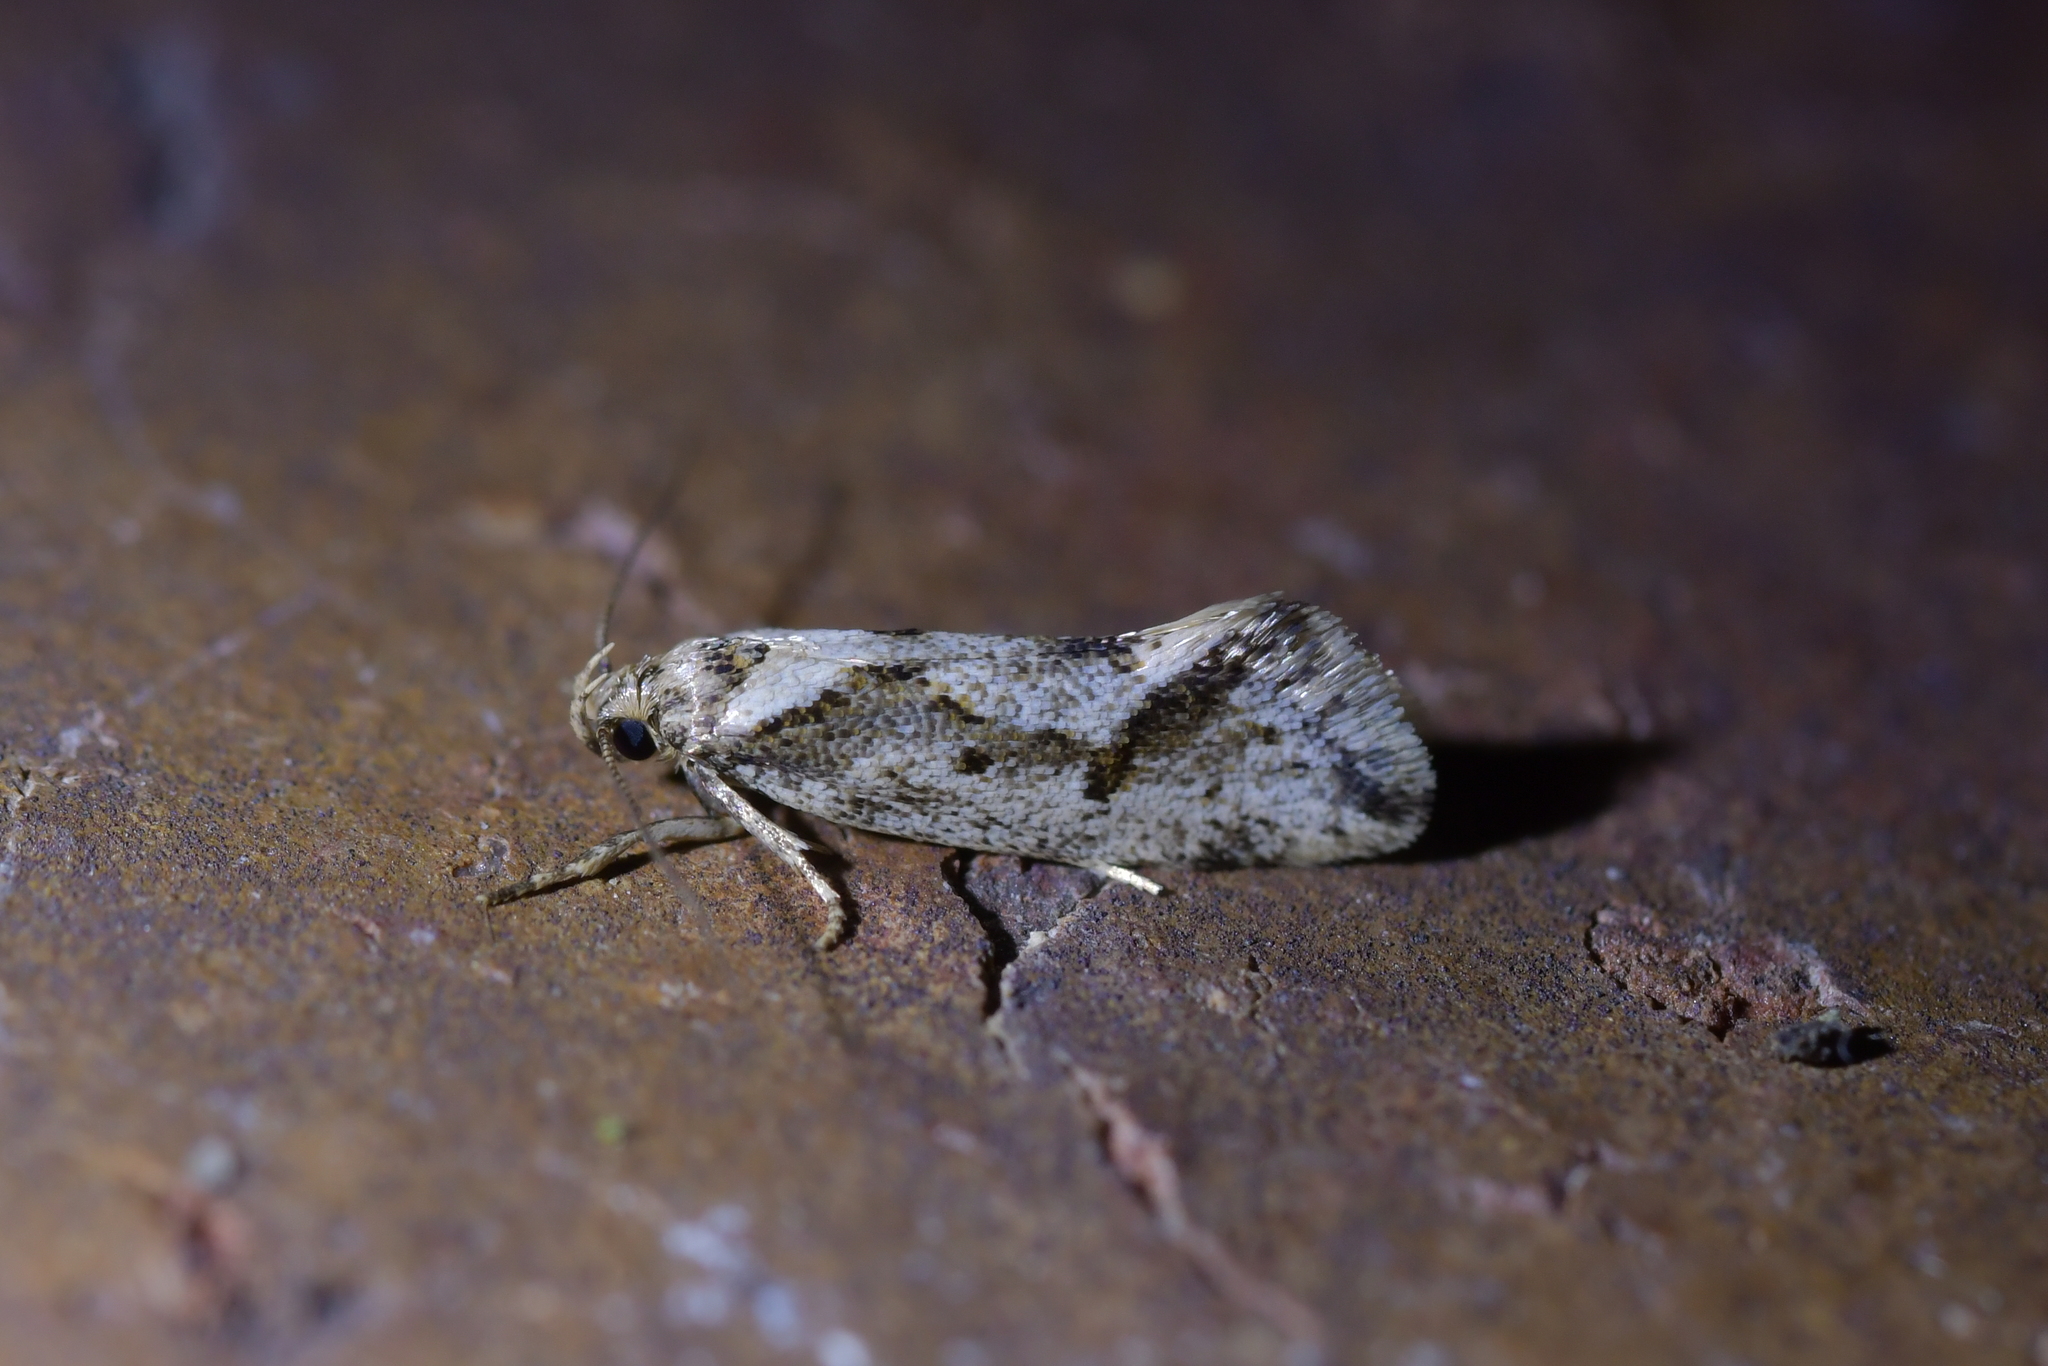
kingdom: Animalia
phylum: Arthropoda
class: Insecta
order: Lepidoptera
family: Oecophoridae
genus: Tingena
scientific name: Tingena hemimochla
